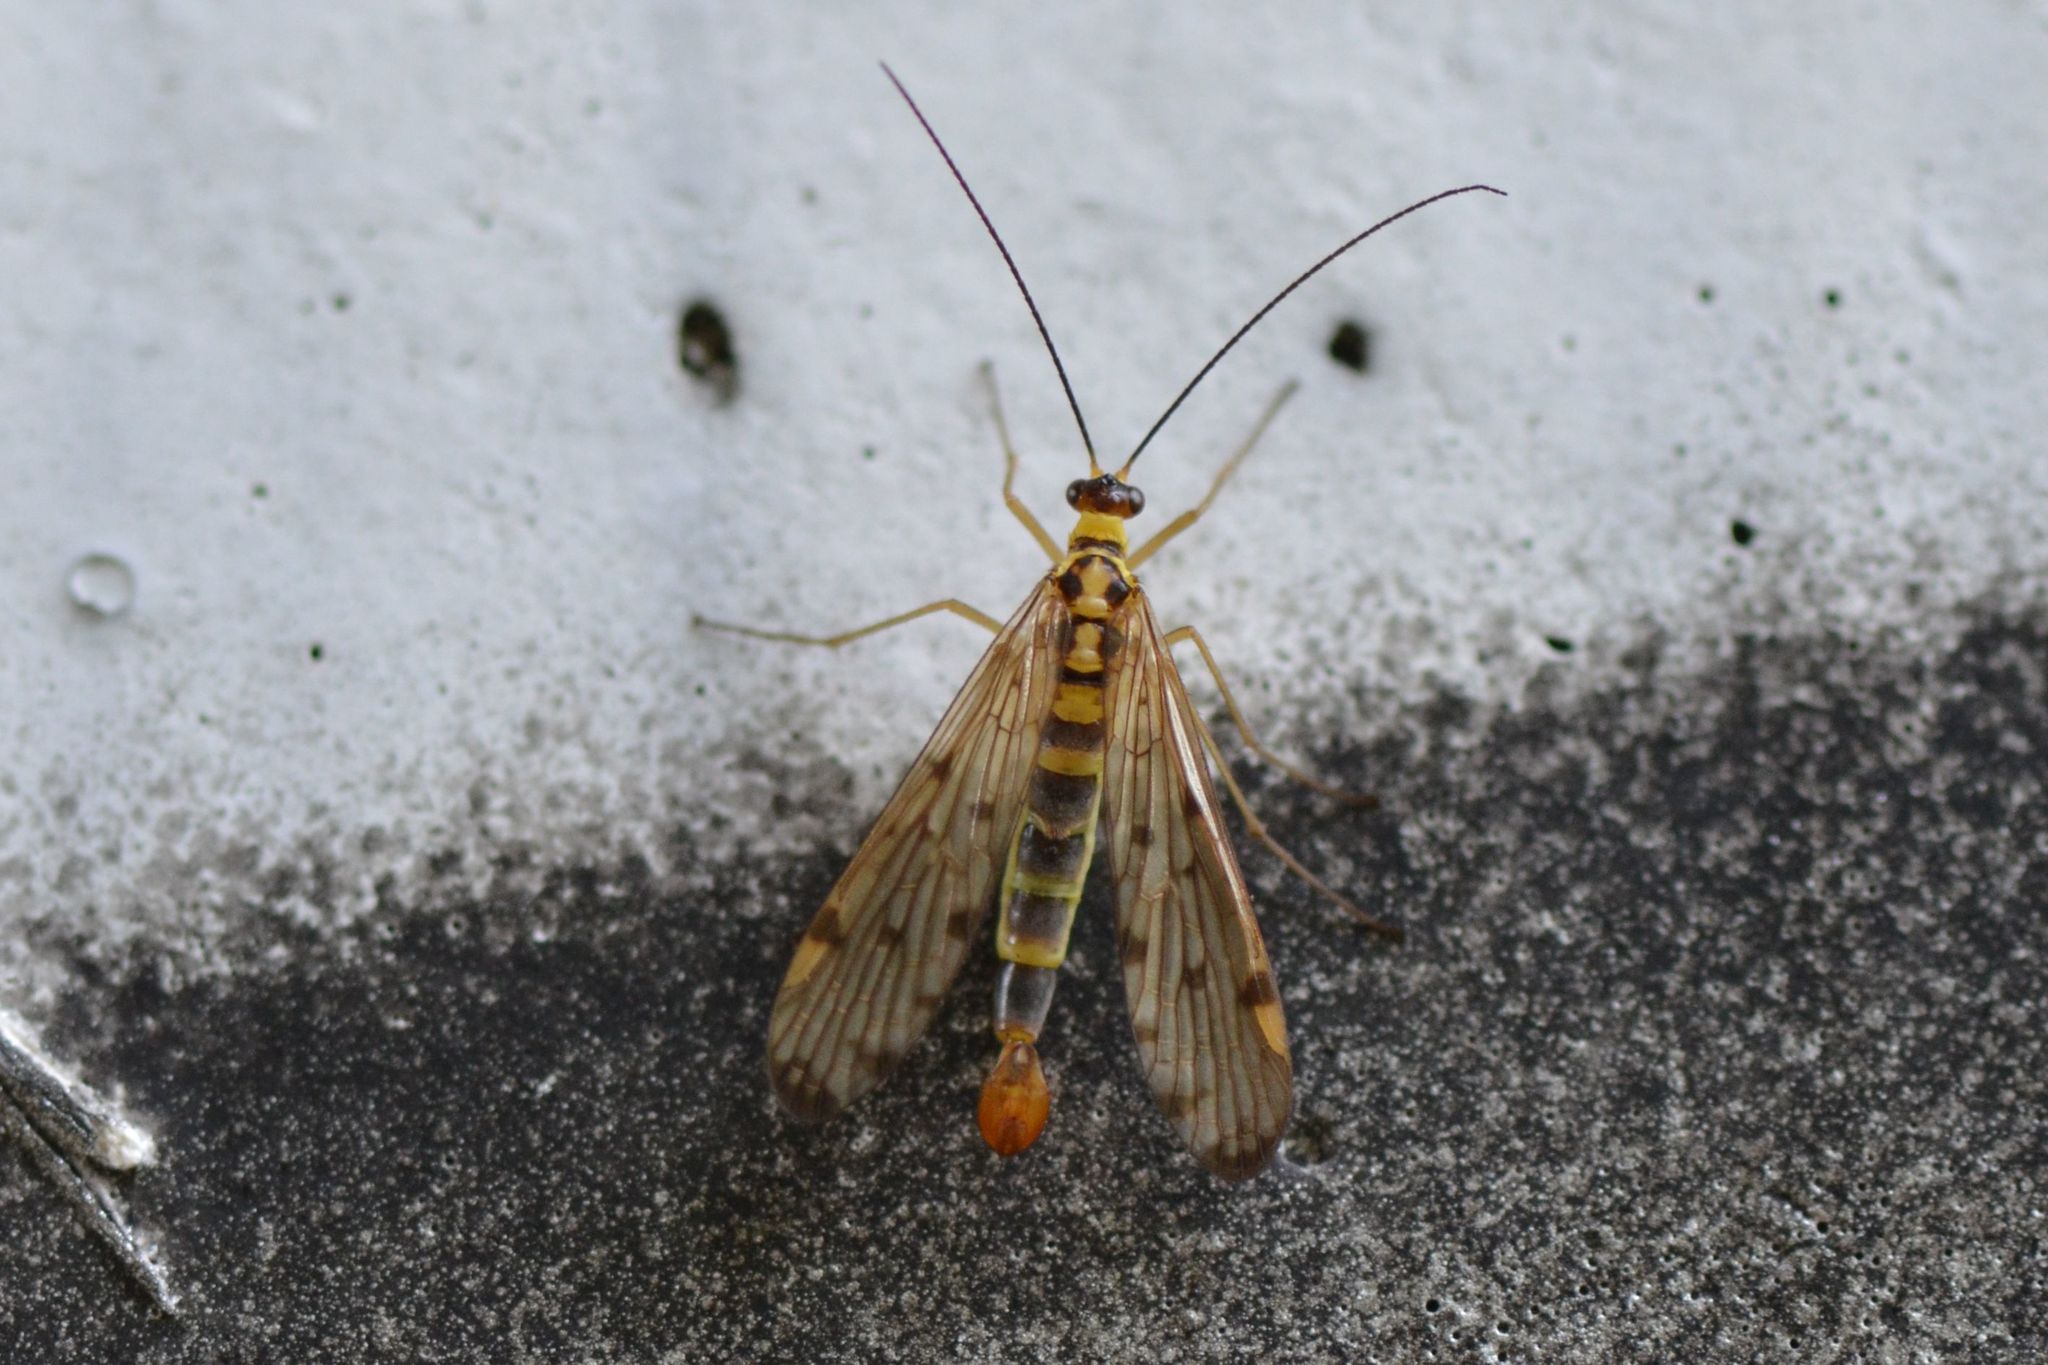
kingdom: Animalia
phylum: Arthropoda
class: Insecta
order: Mecoptera
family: Panorpidae
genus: Panorpa
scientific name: Panorpa germanica
